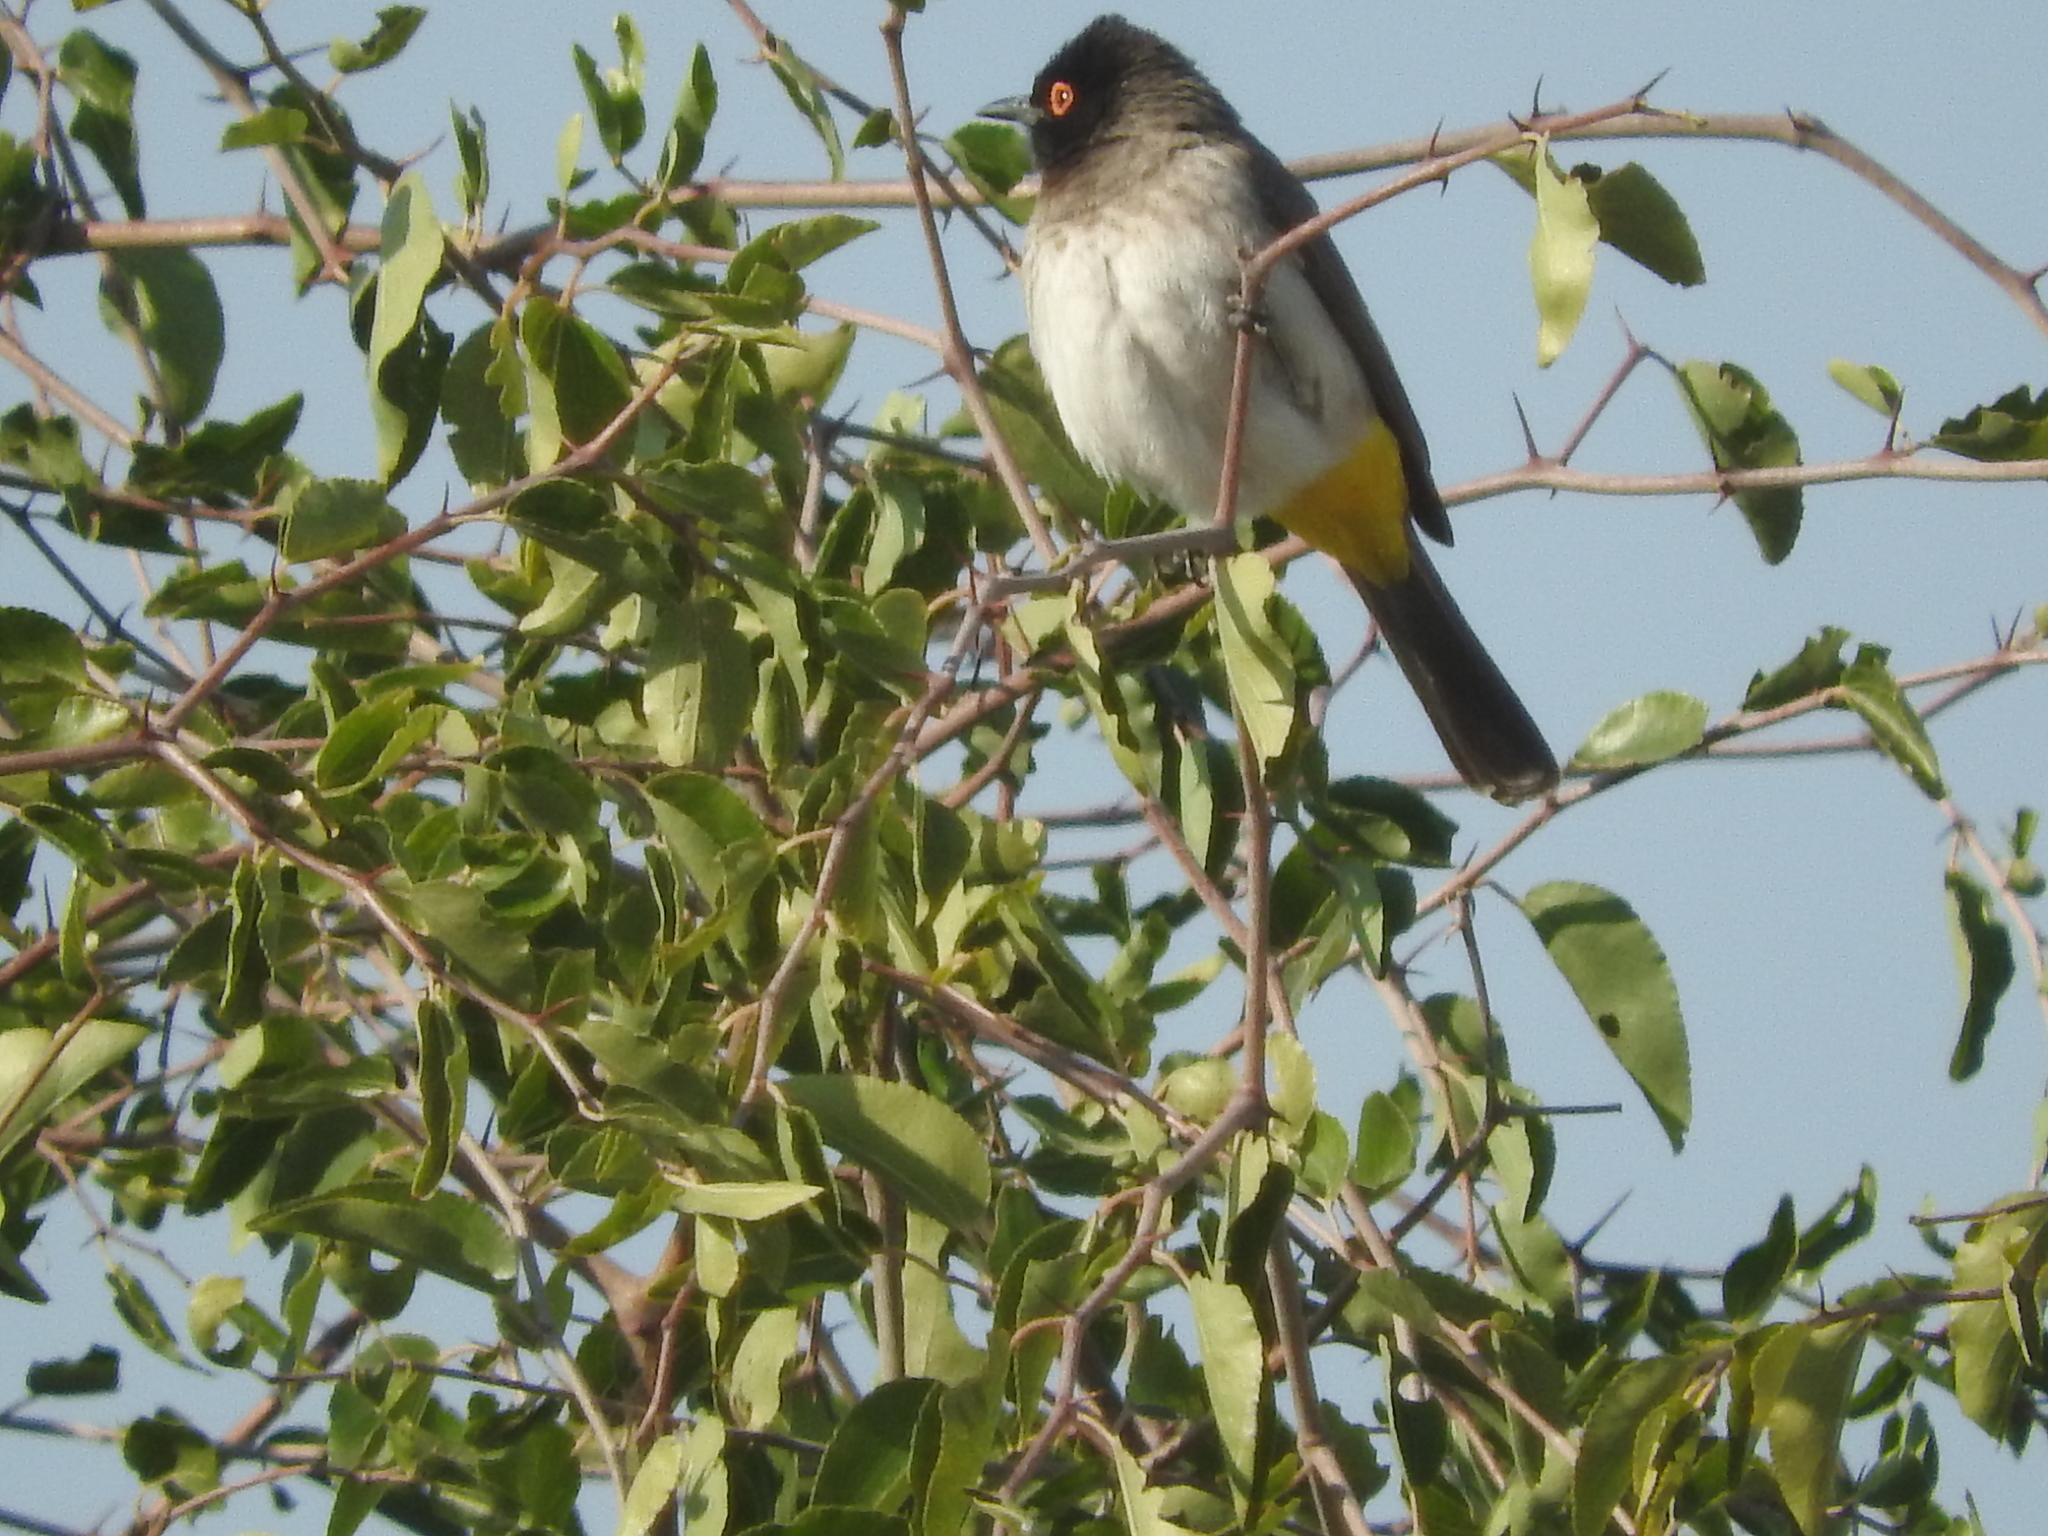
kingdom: Animalia
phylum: Chordata
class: Aves
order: Passeriformes
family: Pycnonotidae
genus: Pycnonotus
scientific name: Pycnonotus nigricans
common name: African red-eyed bulbul
